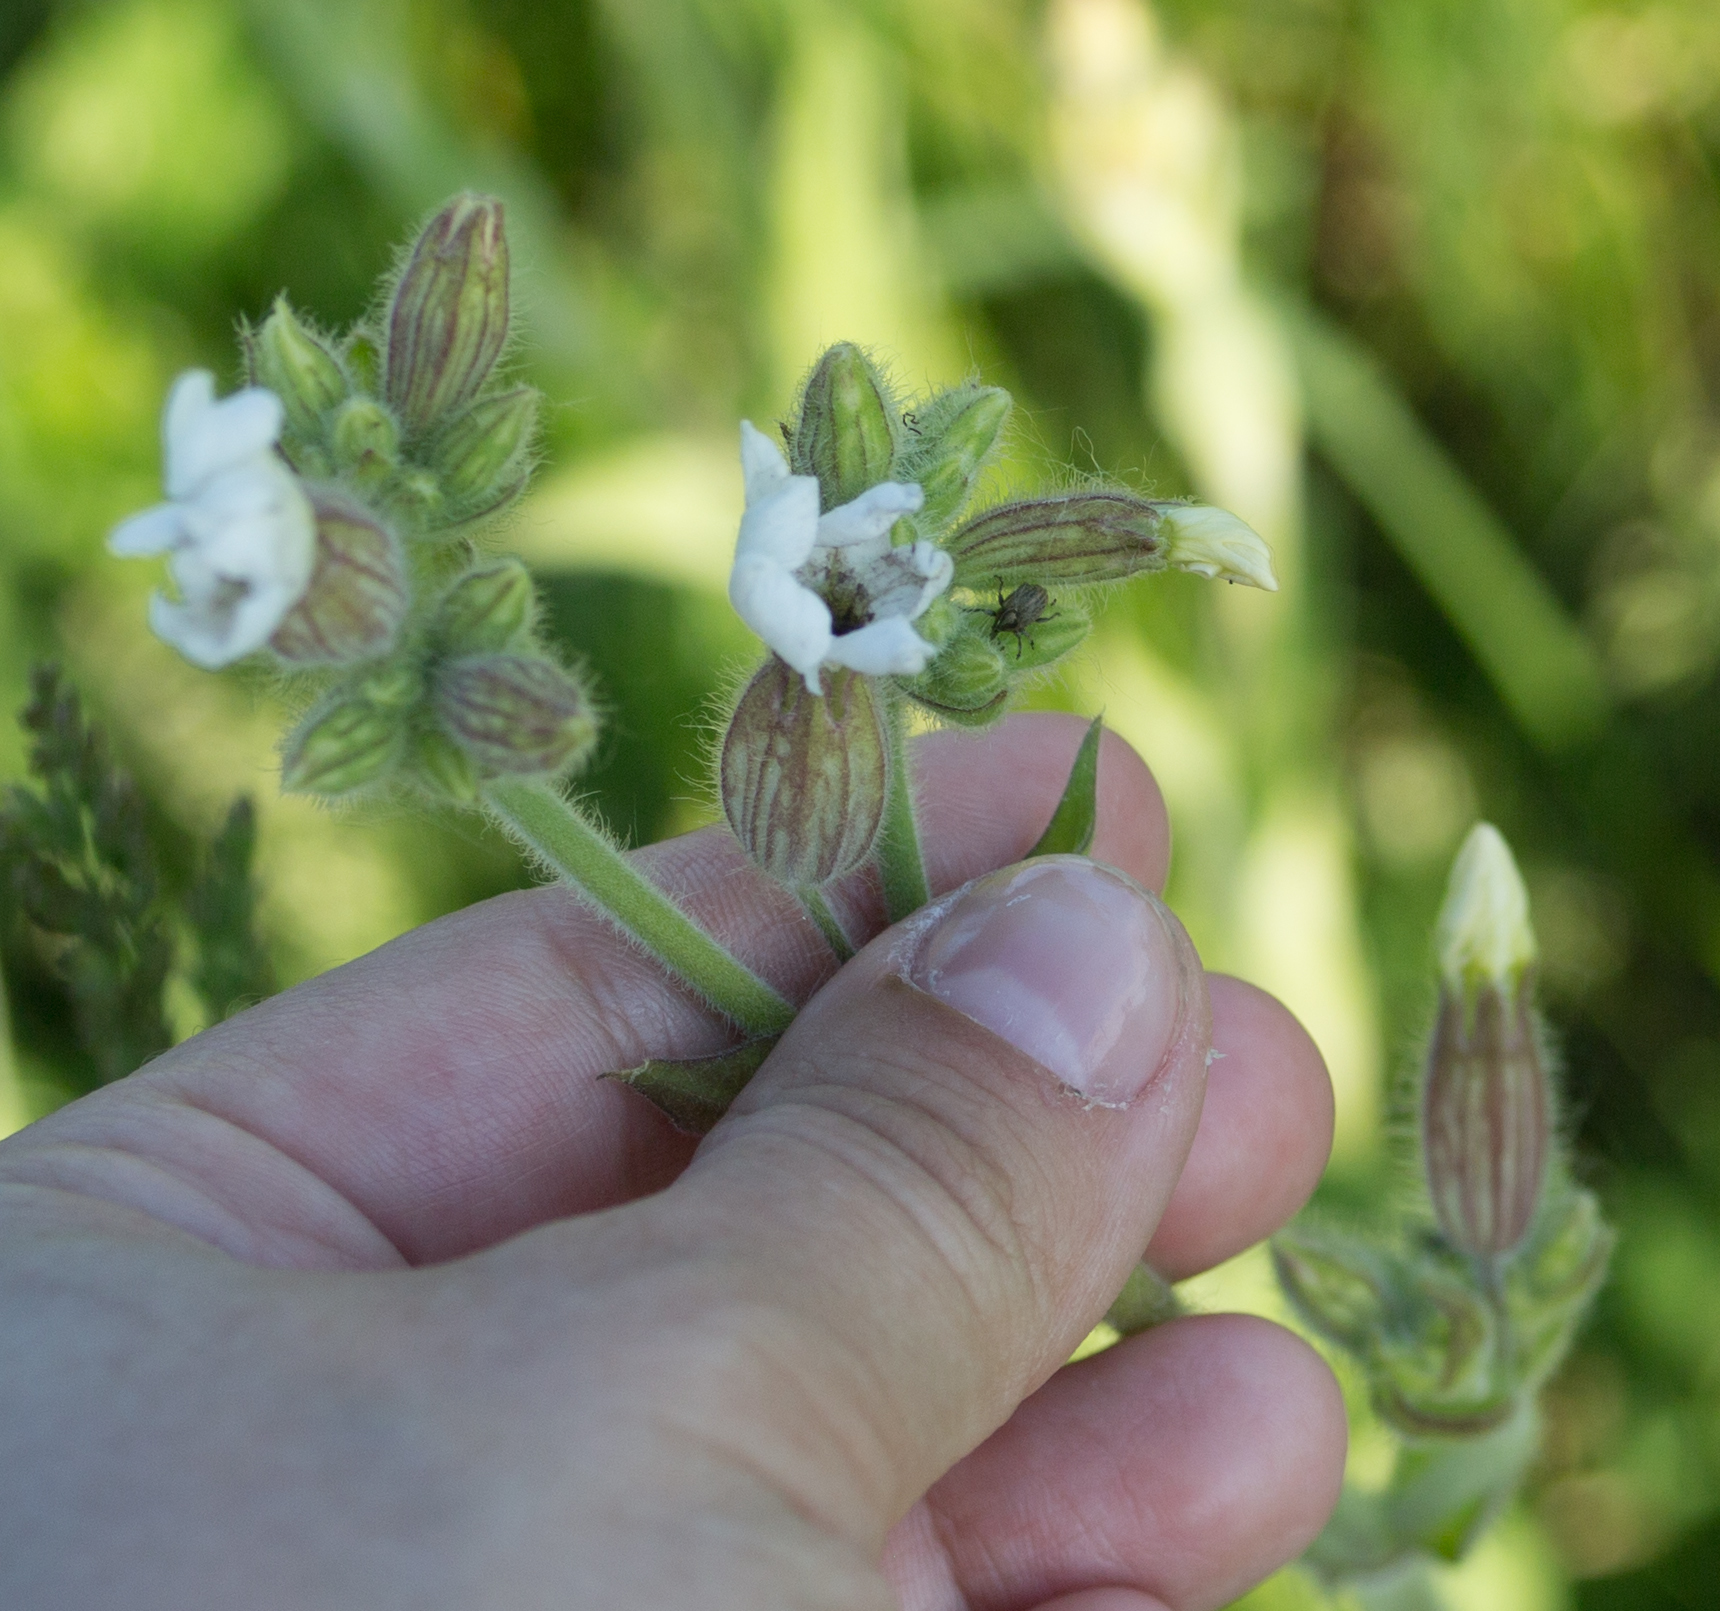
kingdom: Plantae
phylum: Tracheophyta
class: Magnoliopsida
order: Caryophyllales
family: Caryophyllaceae
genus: Silene
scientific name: Silene latifolia
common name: White campion
